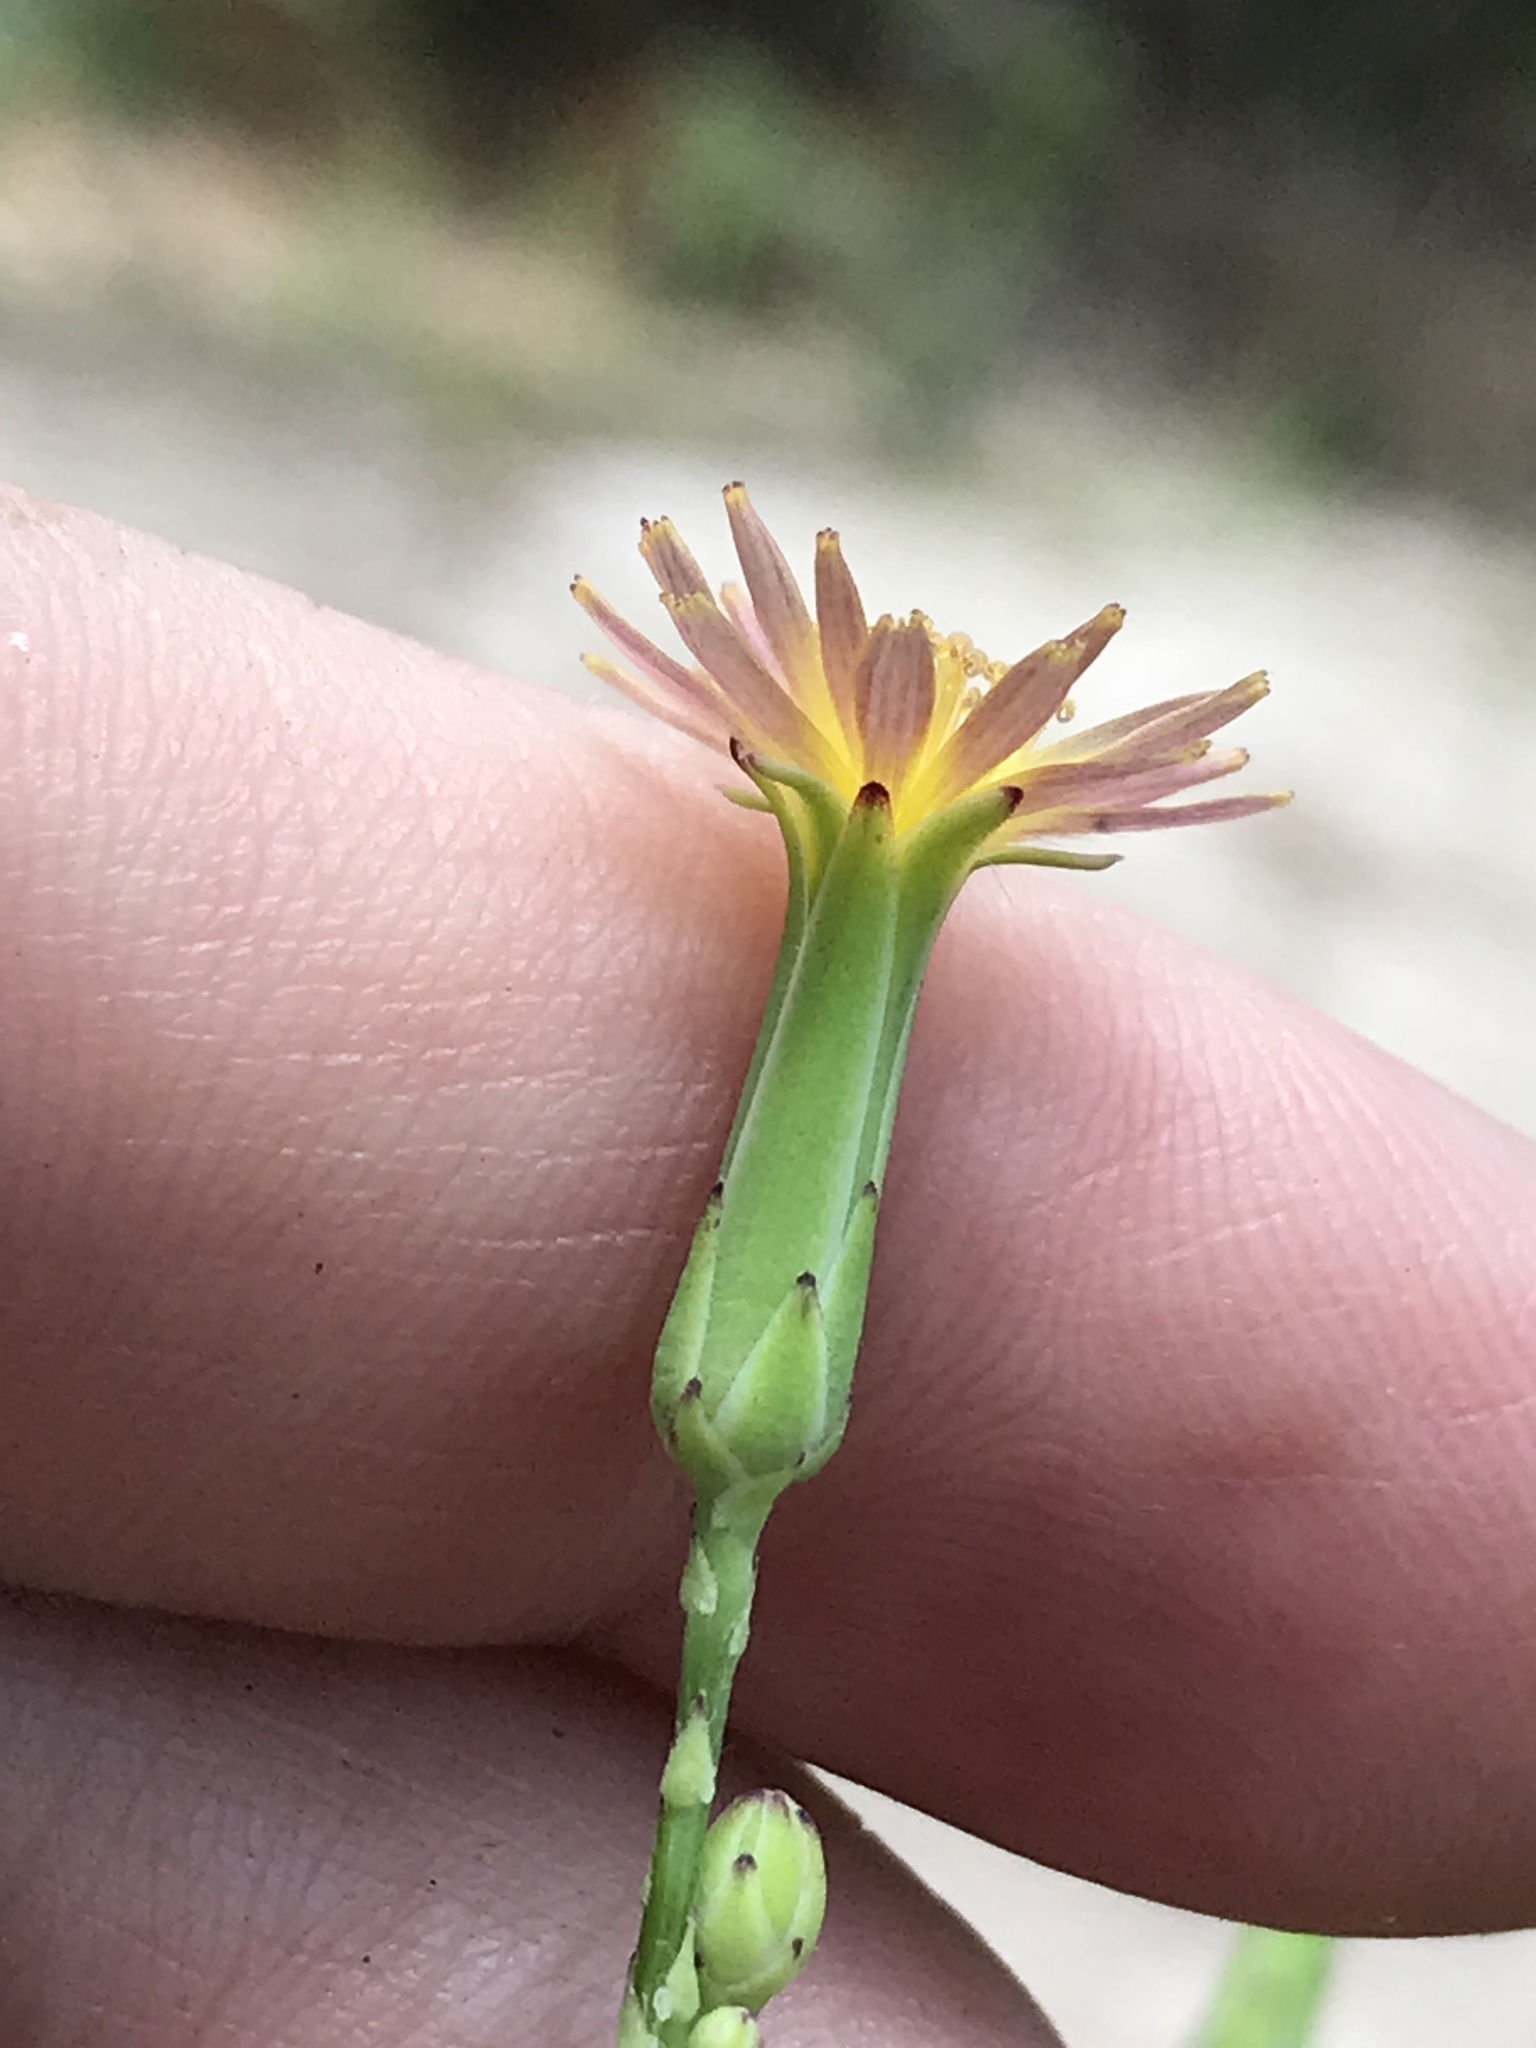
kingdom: Plantae
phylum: Tracheophyta
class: Magnoliopsida
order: Asterales
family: Asteraceae
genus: Lactuca
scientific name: Lactuca saligna
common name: Wild lettuce
